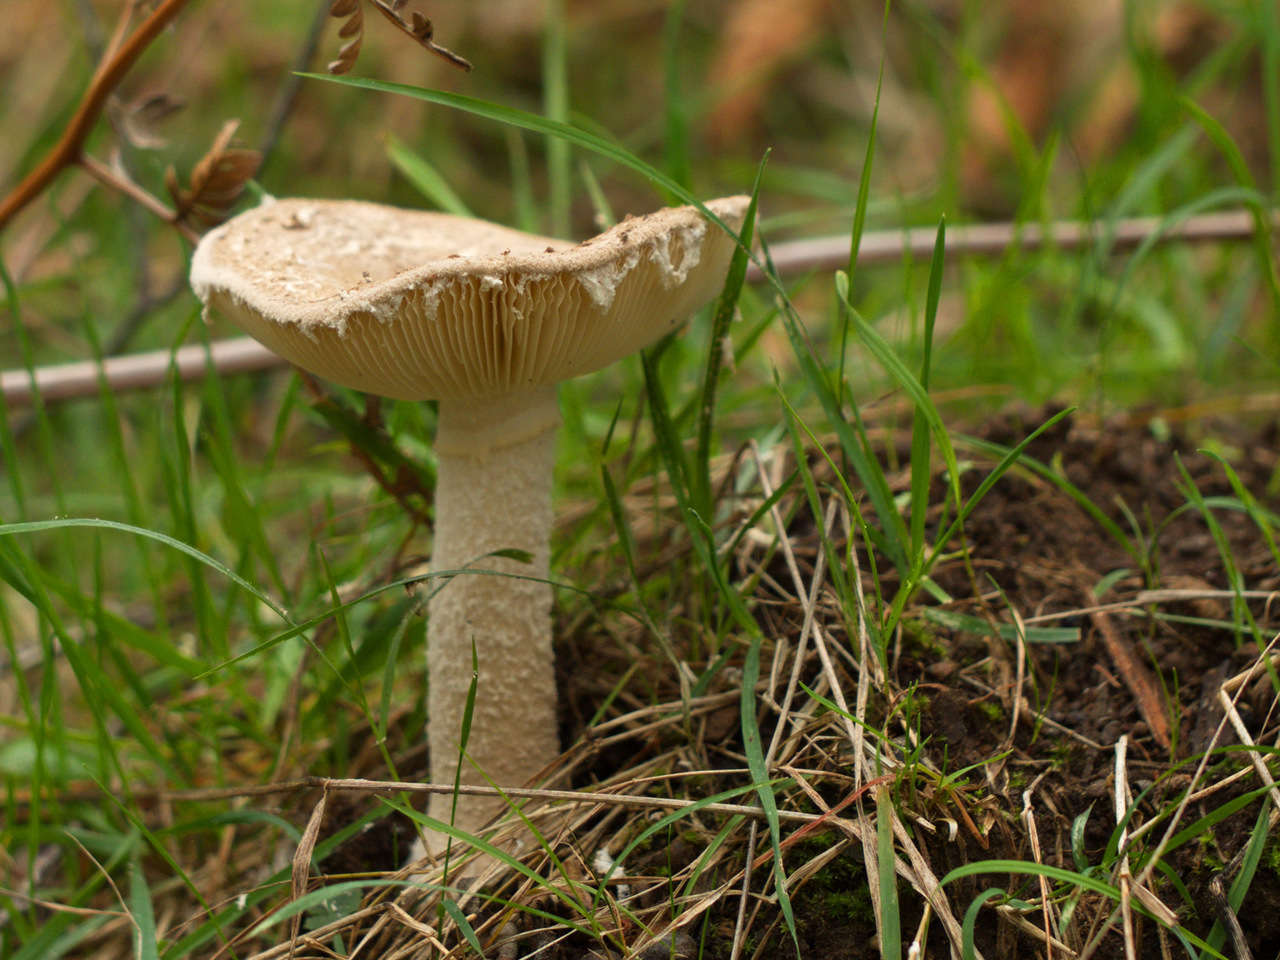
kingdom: Fungi
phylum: Basidiomycota
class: Agaricomycetes
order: Agaricales
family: Amanitaceae
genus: Amanita
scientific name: Amanita farinacea
